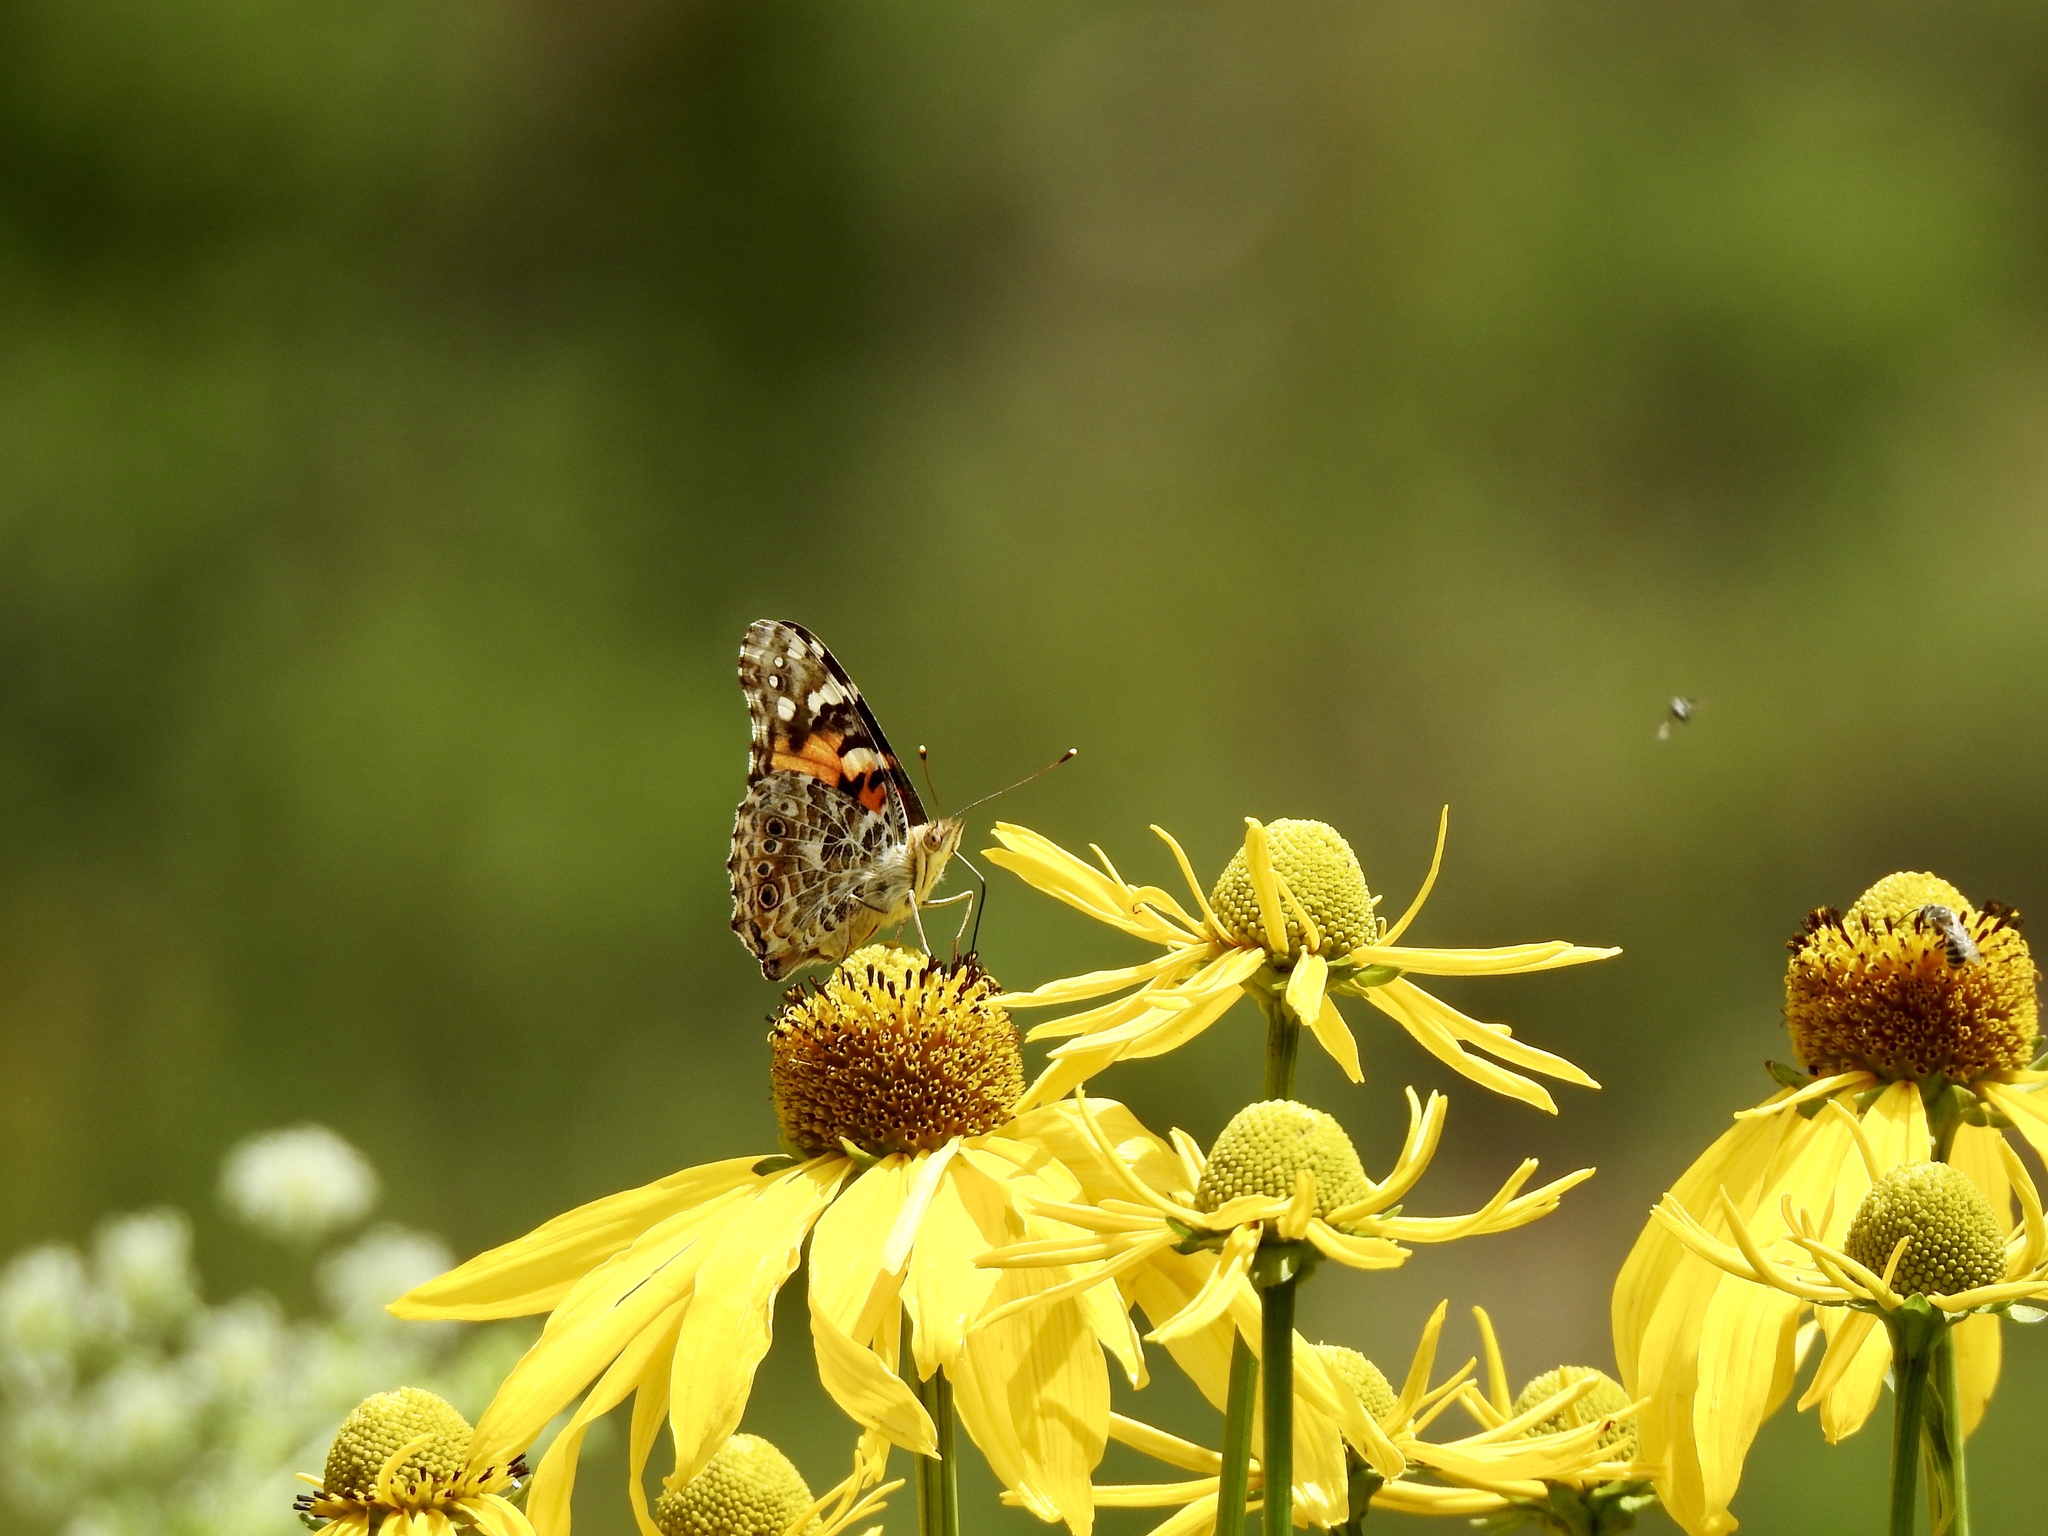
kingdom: Animalia
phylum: Arthropoda
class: Insecta
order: Lepidoptera
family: Nymphalidae
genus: Vanessa
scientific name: Vanessa cardui
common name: Painted lady
